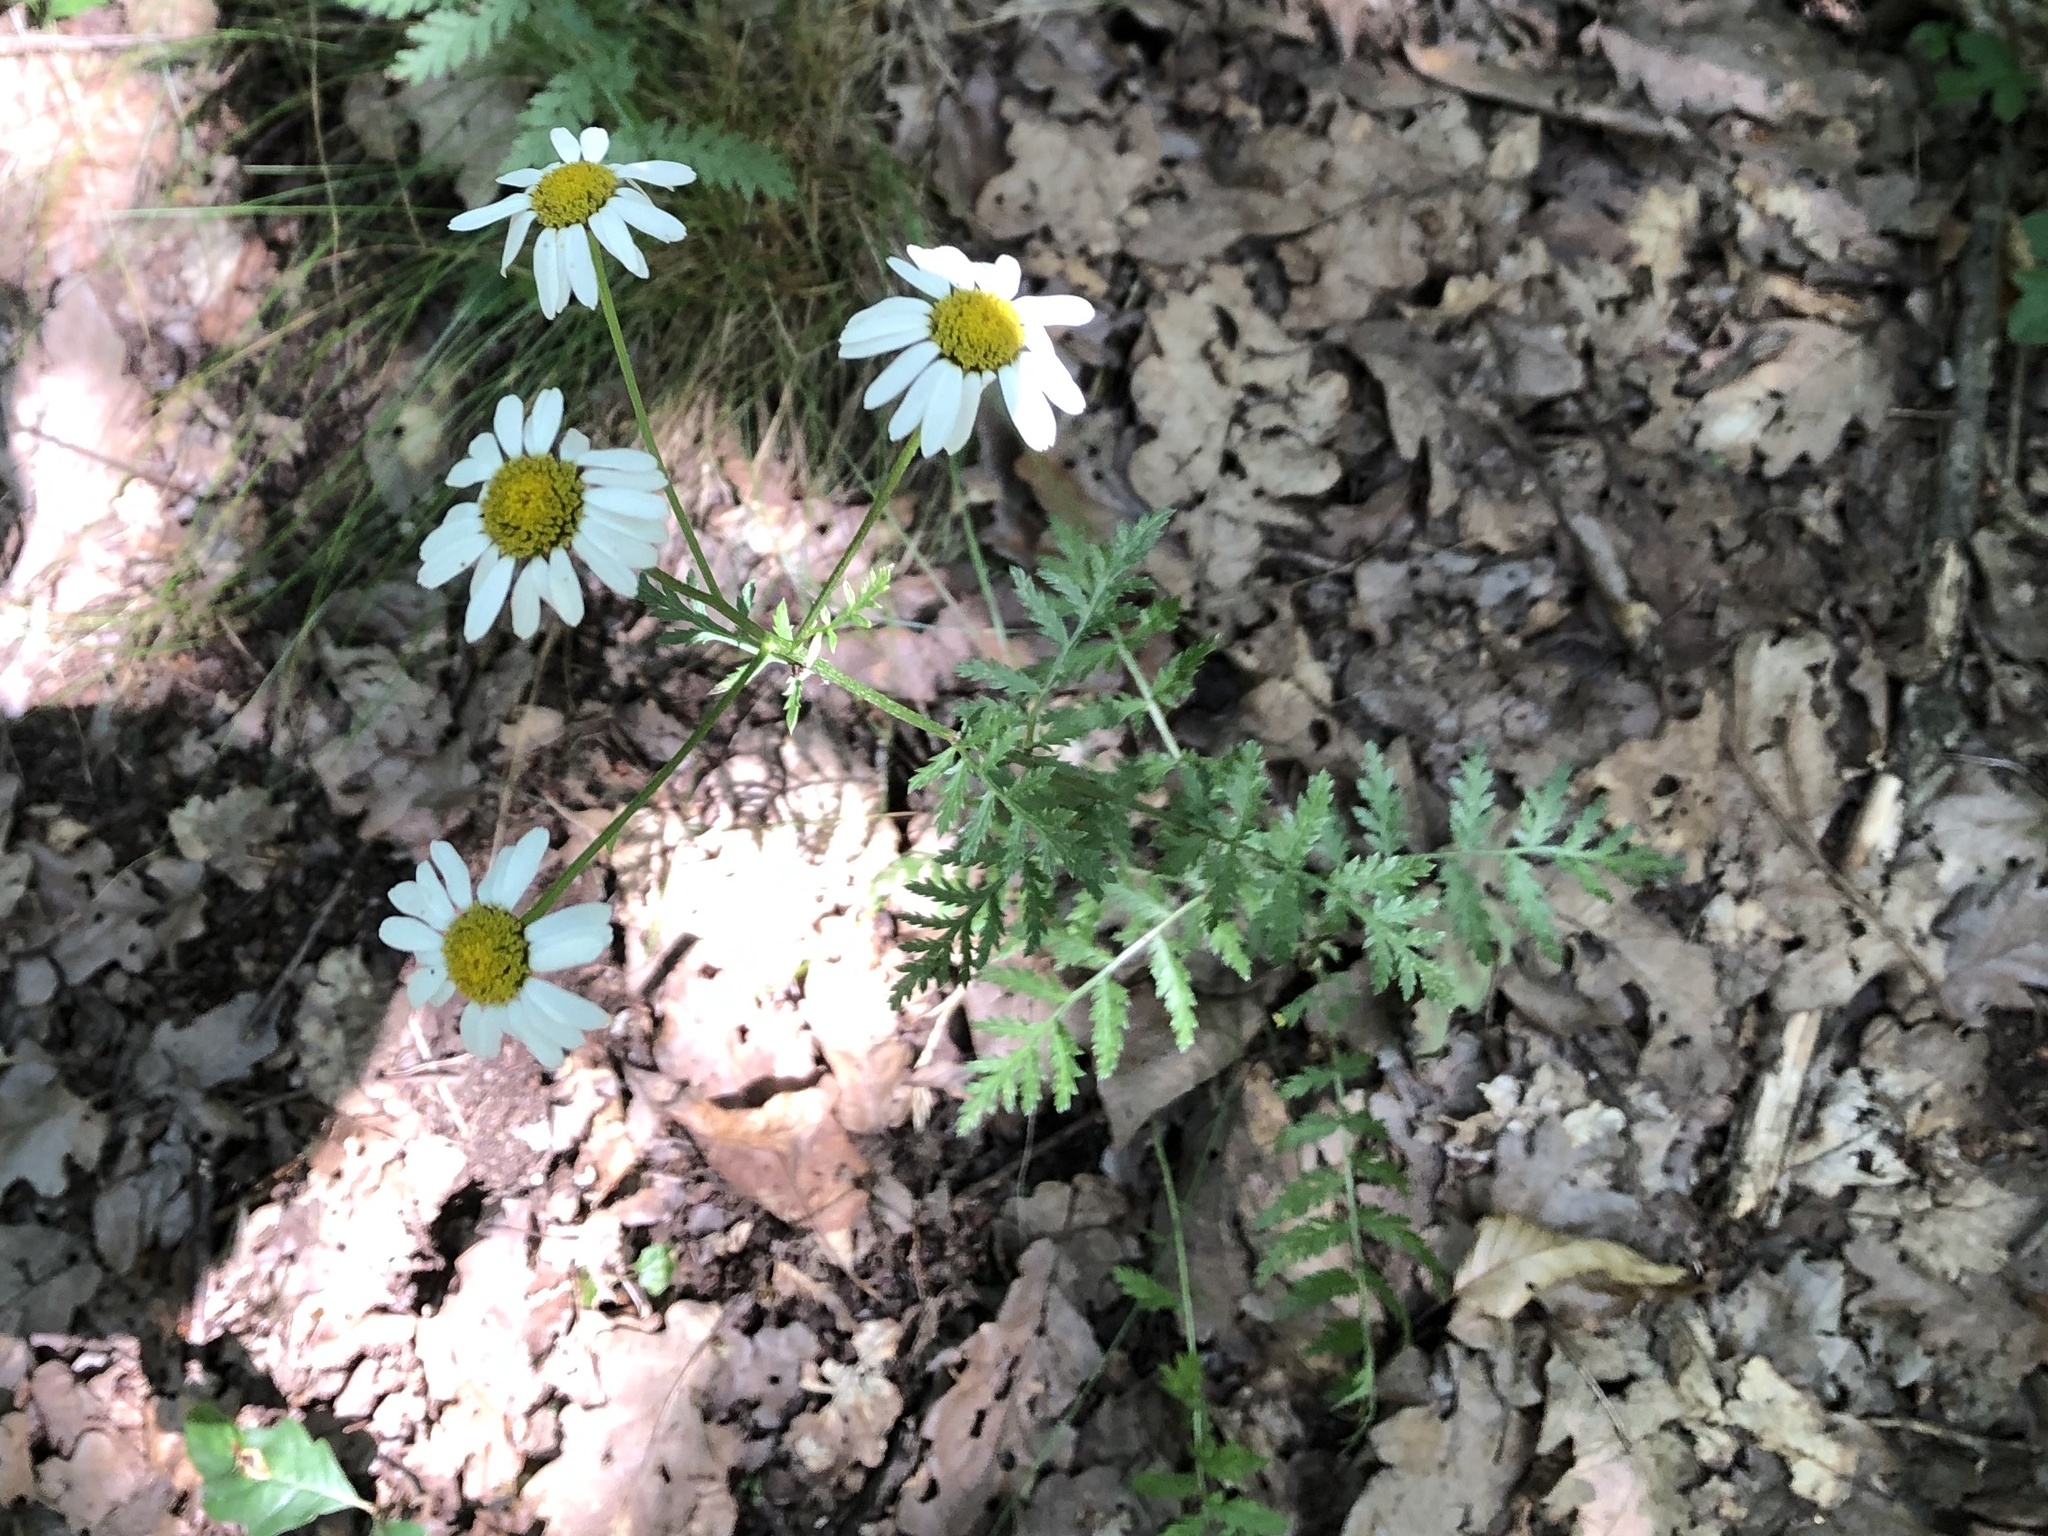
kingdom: Plantae
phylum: Tracheophyta
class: Magnoliopsida
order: Asterales
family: Asteraceae
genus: Tanacetum
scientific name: Tanacetum corymbosum
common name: Scentless feverfew
